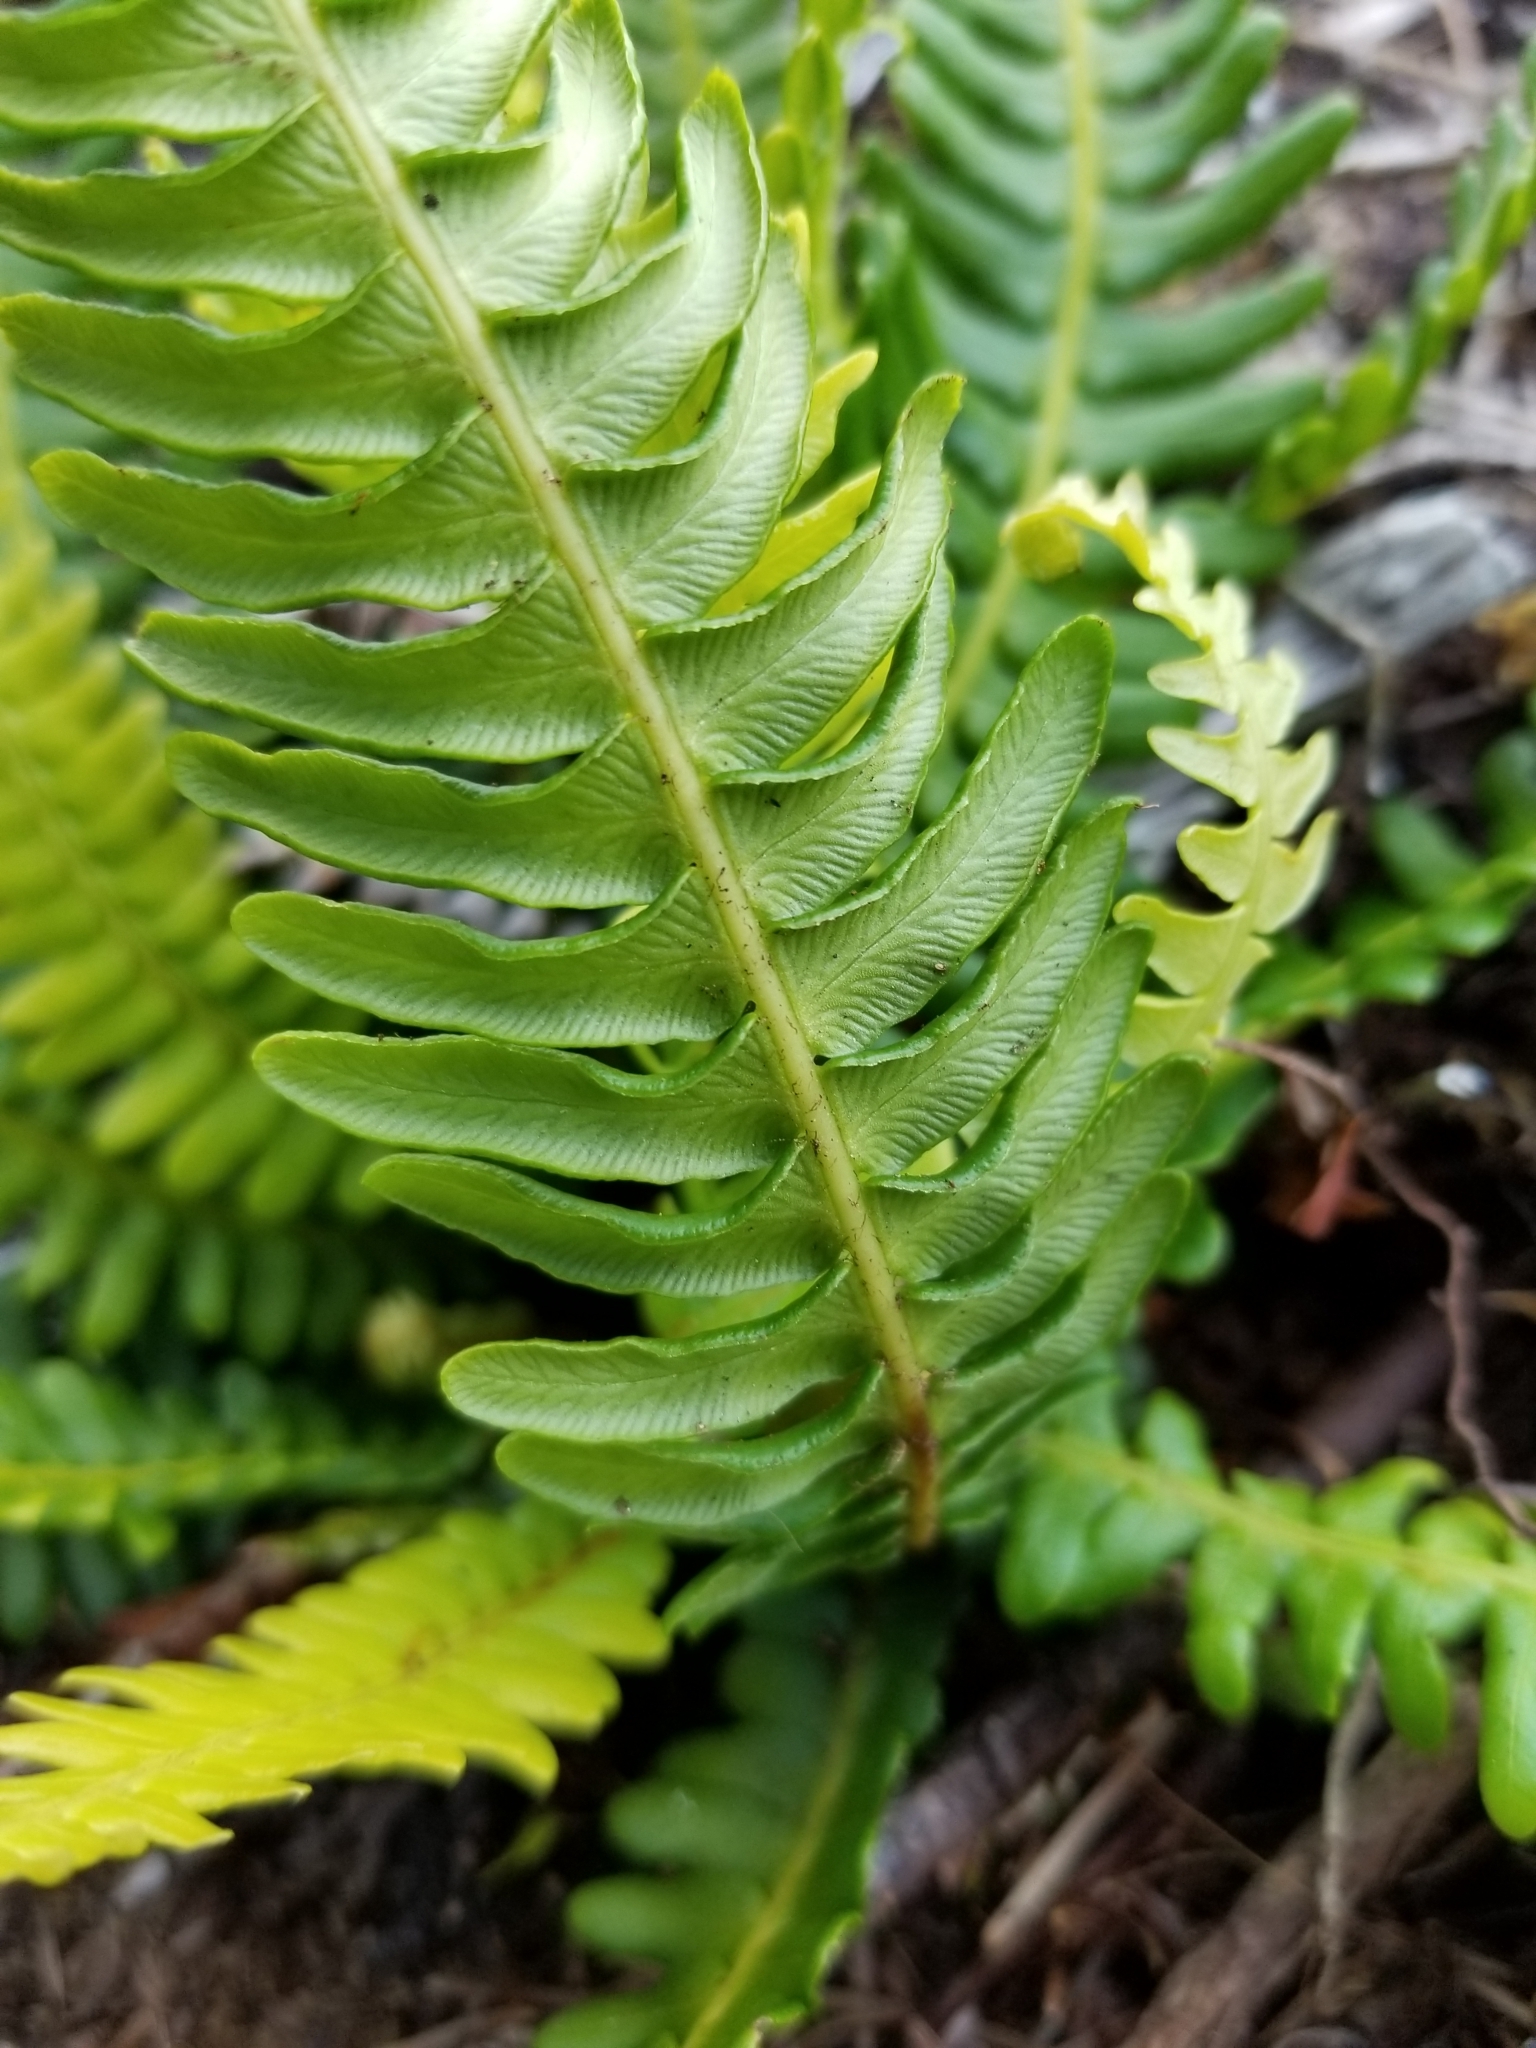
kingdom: Plantae
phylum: Tracheophyta
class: Polypodiopsida
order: Polypodiales
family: Blechnaceae
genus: Struthiopteris
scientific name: Struthiopteris spicant
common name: Deer fern
